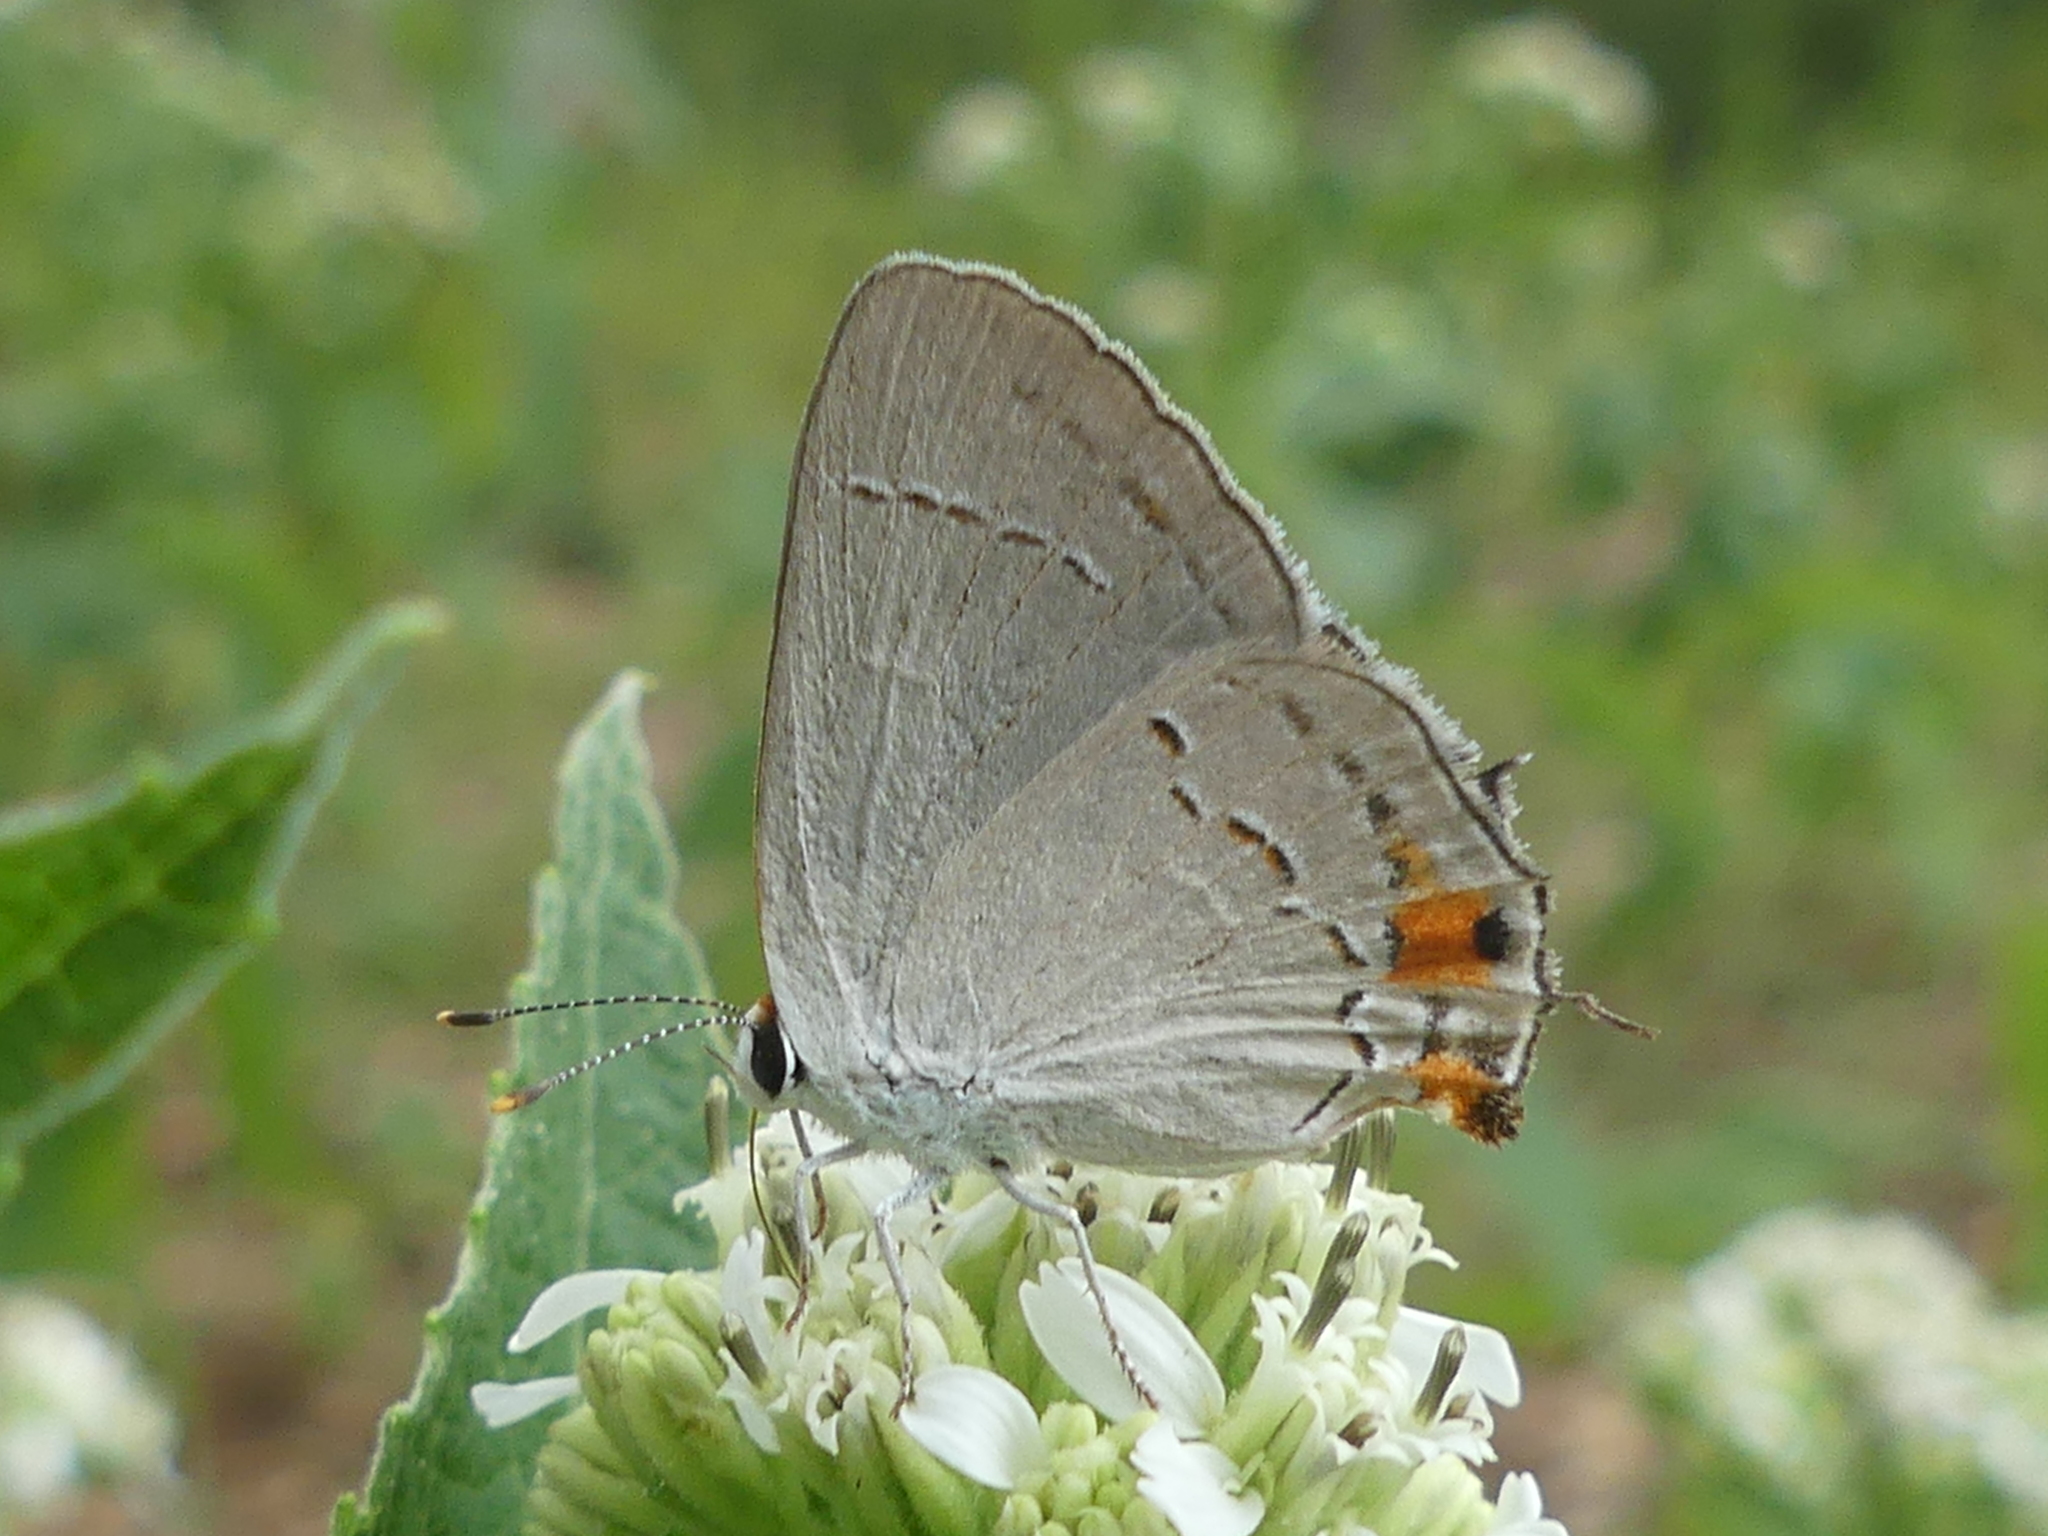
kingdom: Animalia
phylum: Arthropoda
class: Insecta
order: Lepidoptera
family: Lycaenidae
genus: Strymon
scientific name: Strymon melinus
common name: Gray hairstreak
